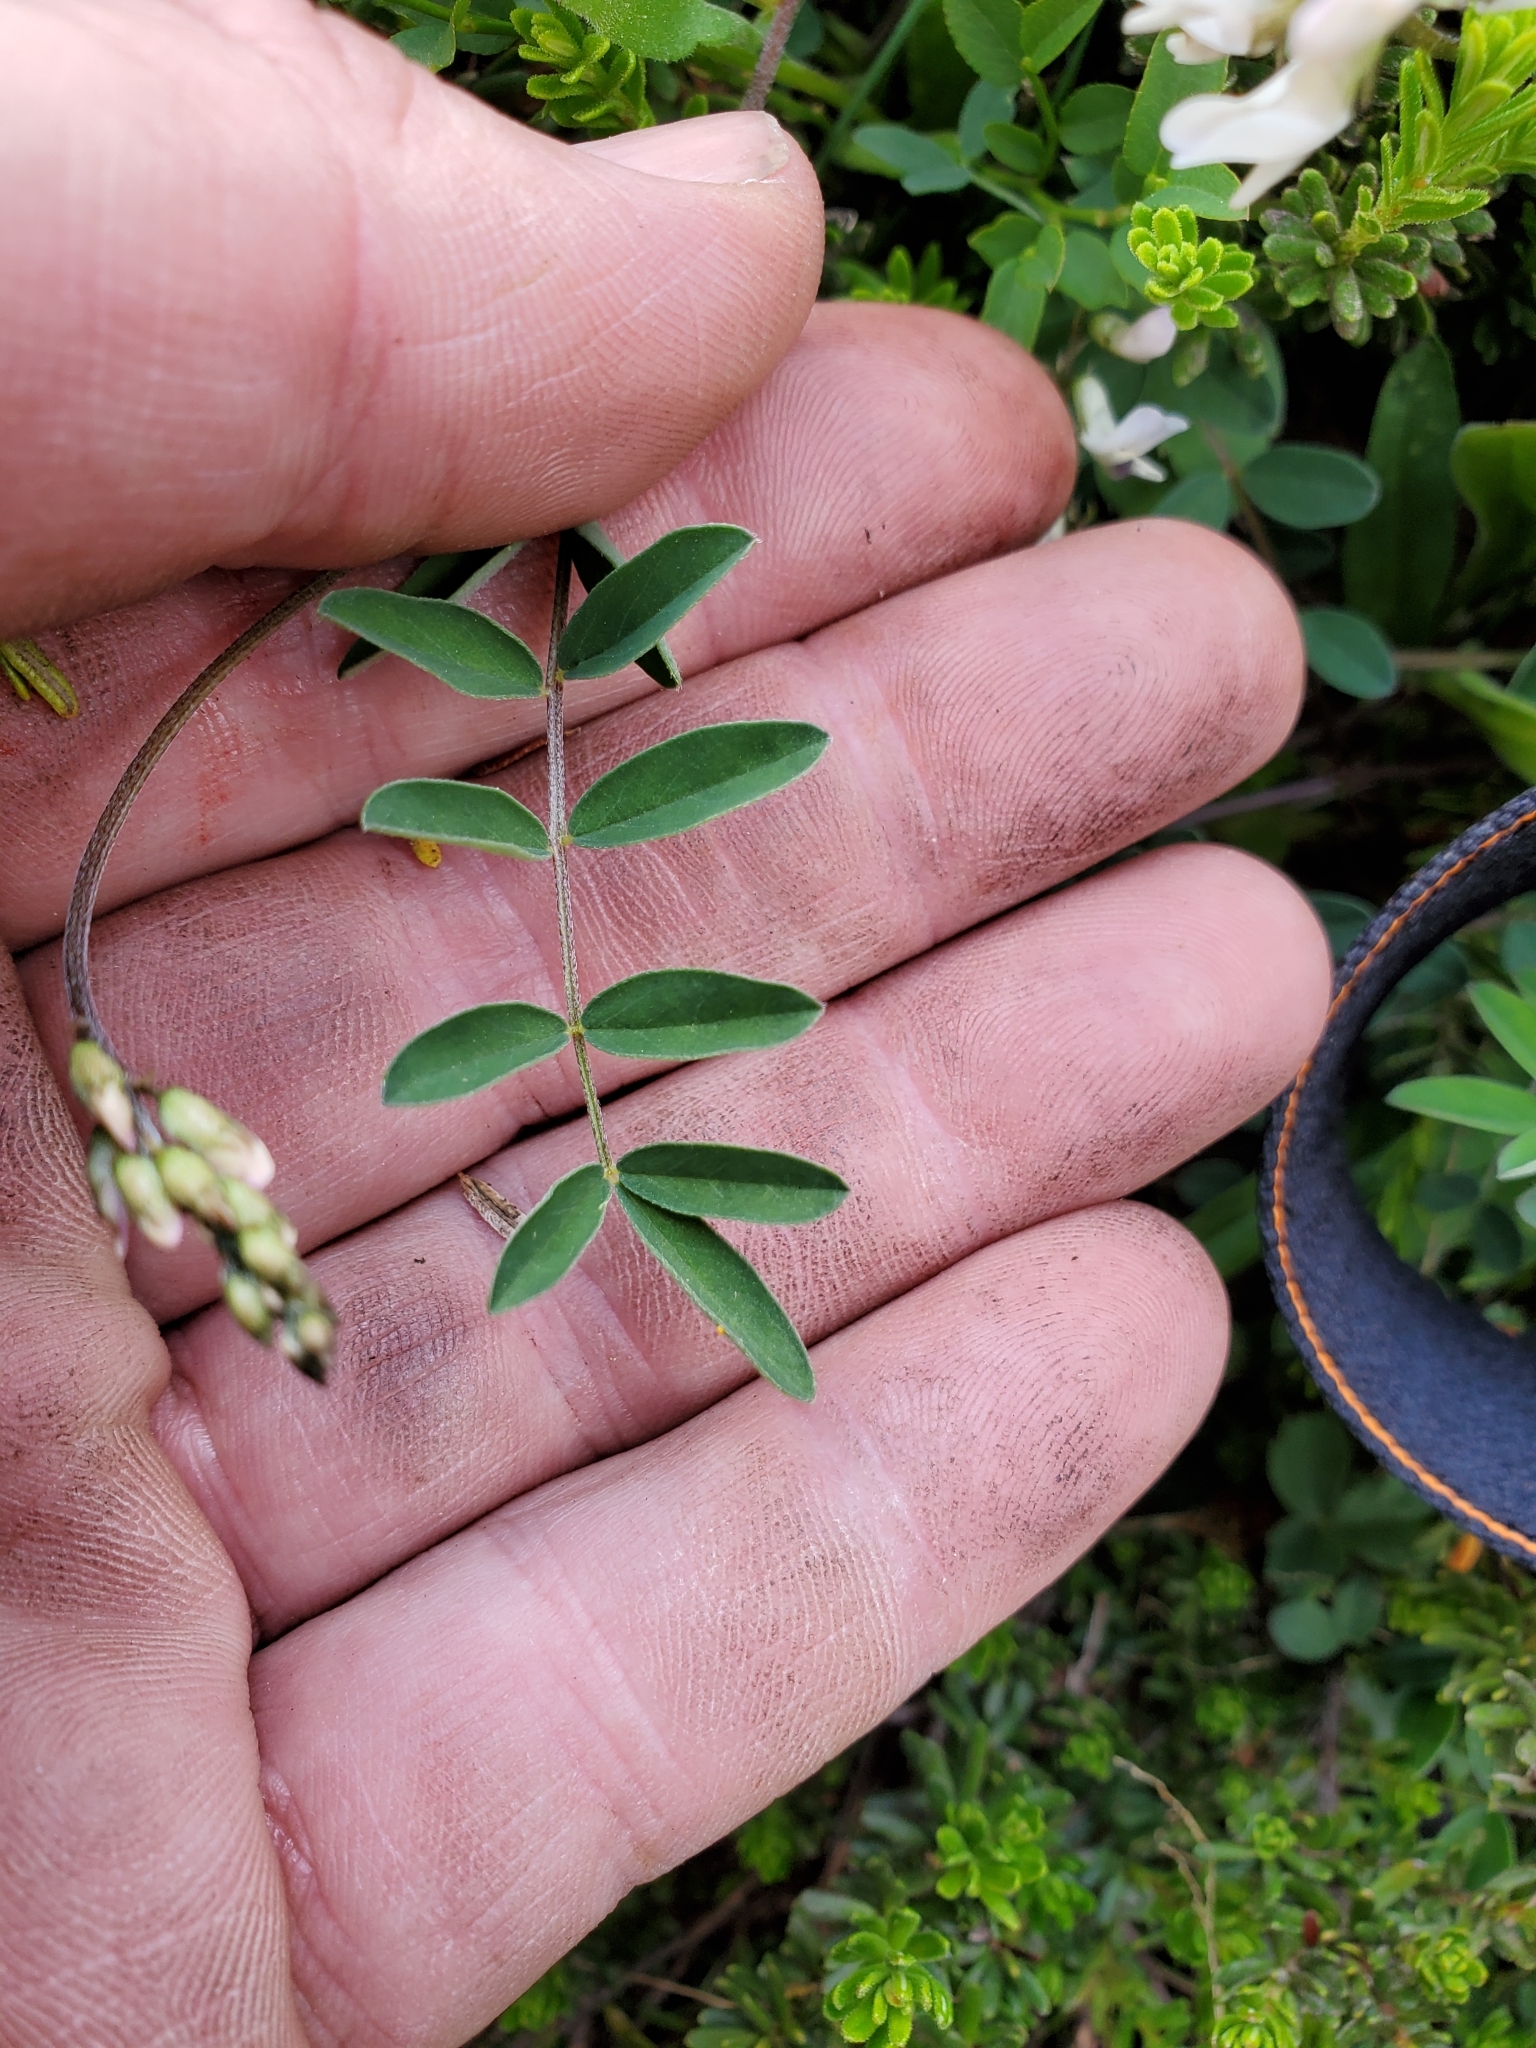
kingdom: Plantae
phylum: Tracheophyta
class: Magnoliopsida
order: Fabales
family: Fabaceae
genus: Astragalus
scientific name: Astragalus robbinsii
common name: Robbins' milk-vetch
